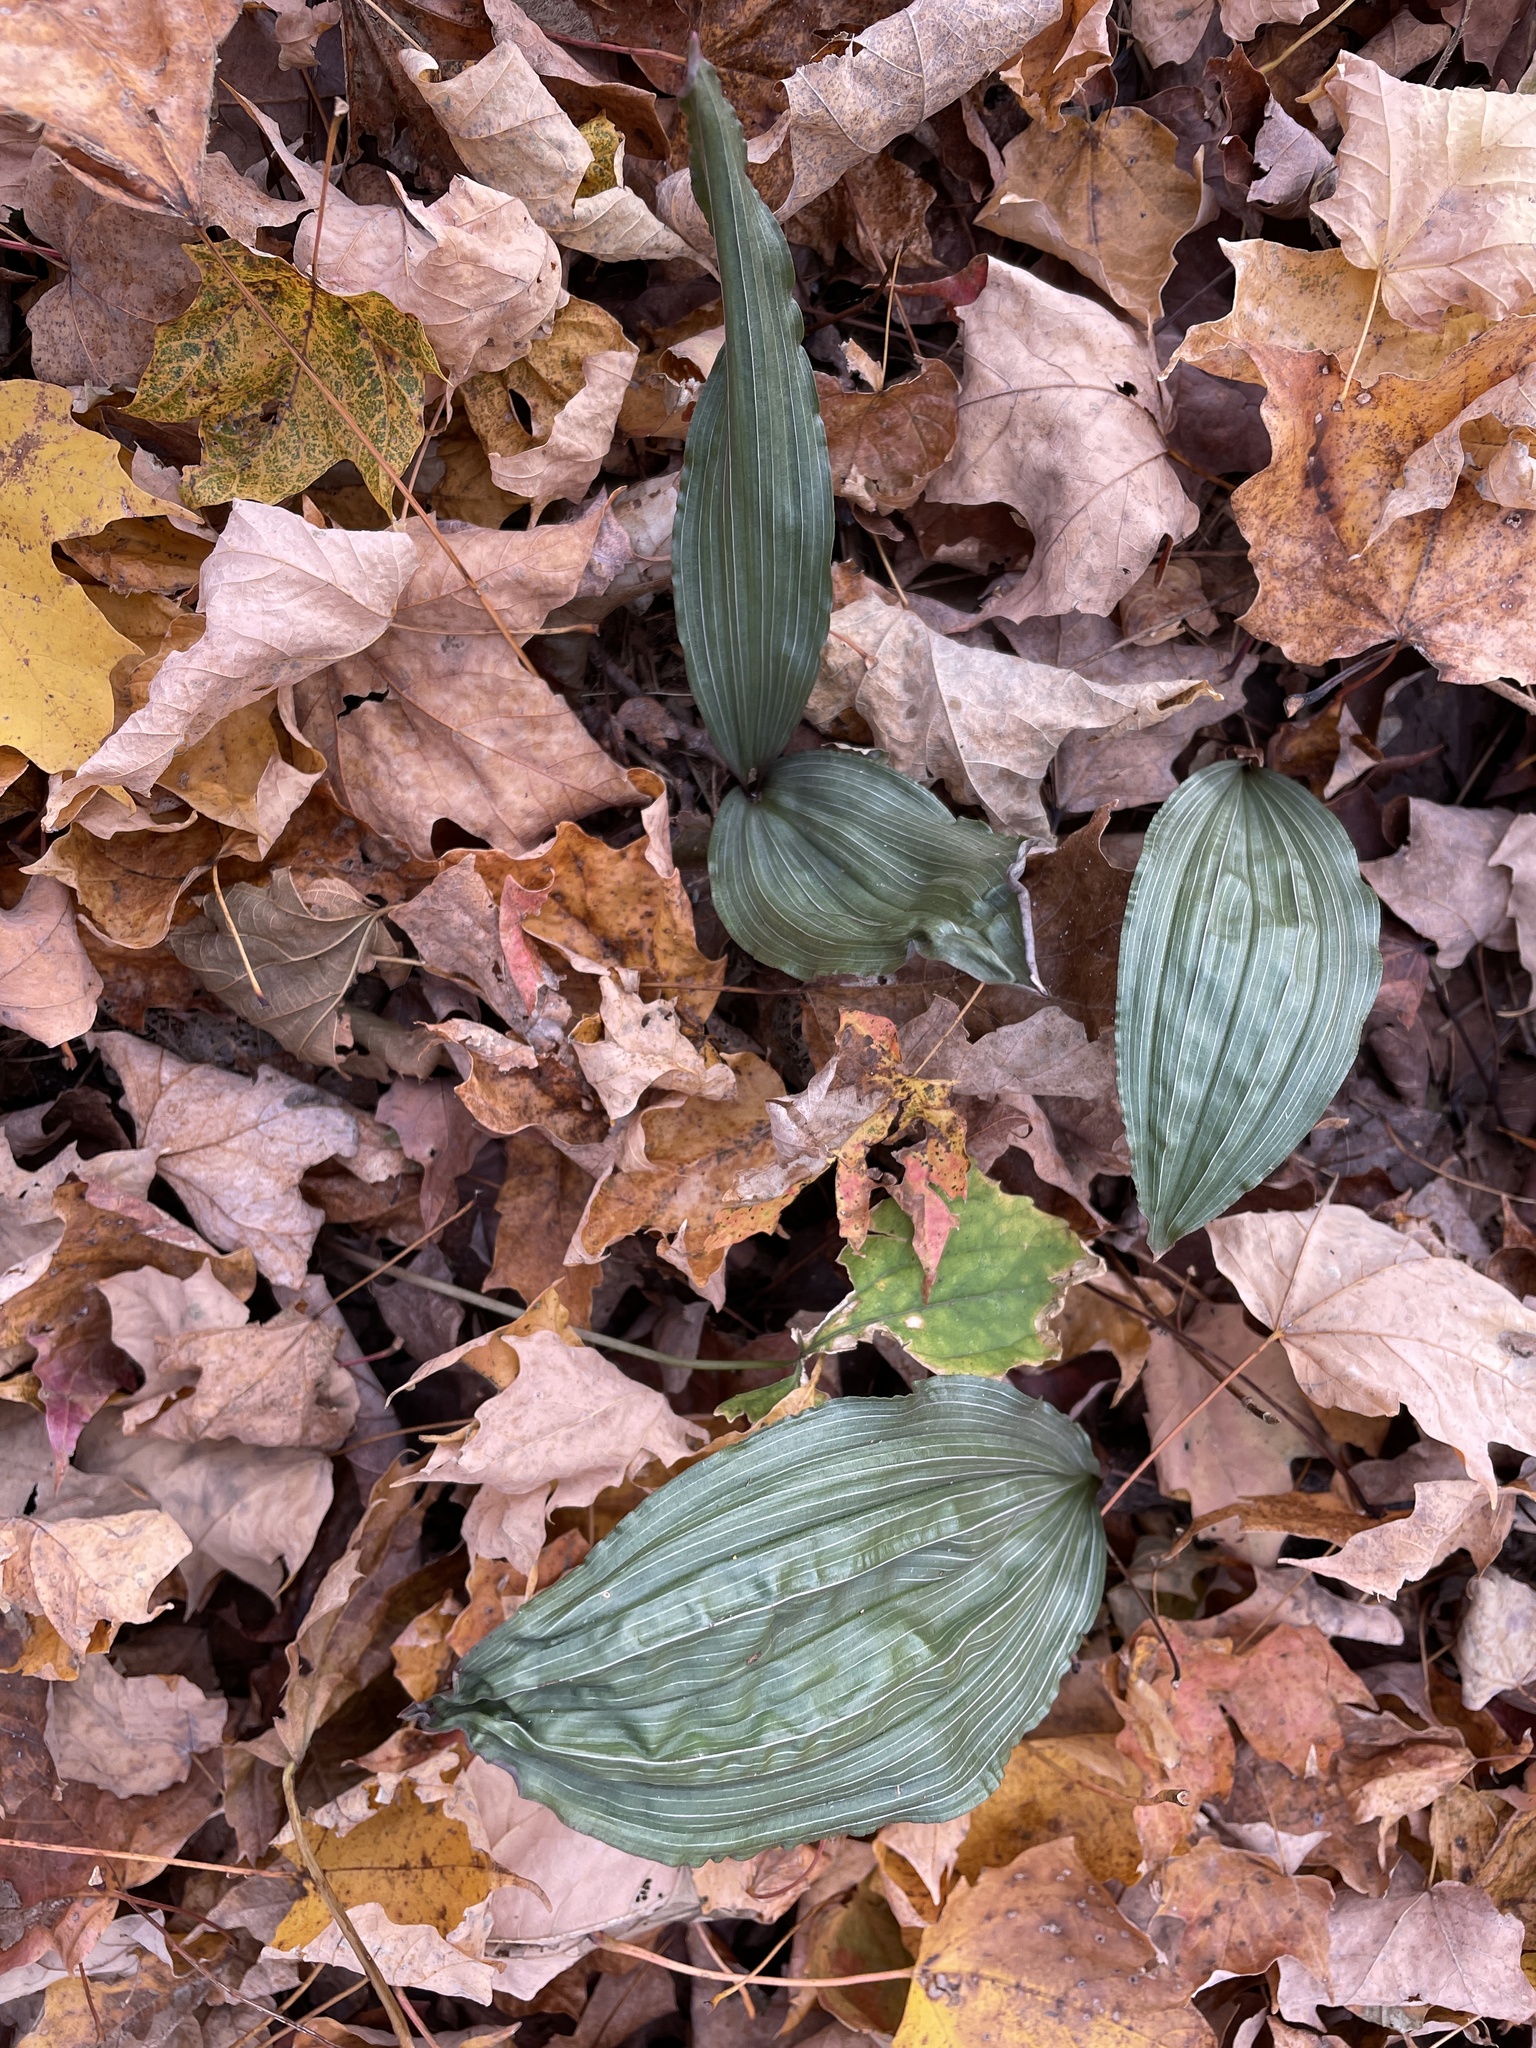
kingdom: Plantae
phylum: Tracheophyta
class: Liliopsida
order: Asparagales
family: Orchidaceae
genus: Aplectrum
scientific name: Aplectrum hyemale
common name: Adam-and-eve
